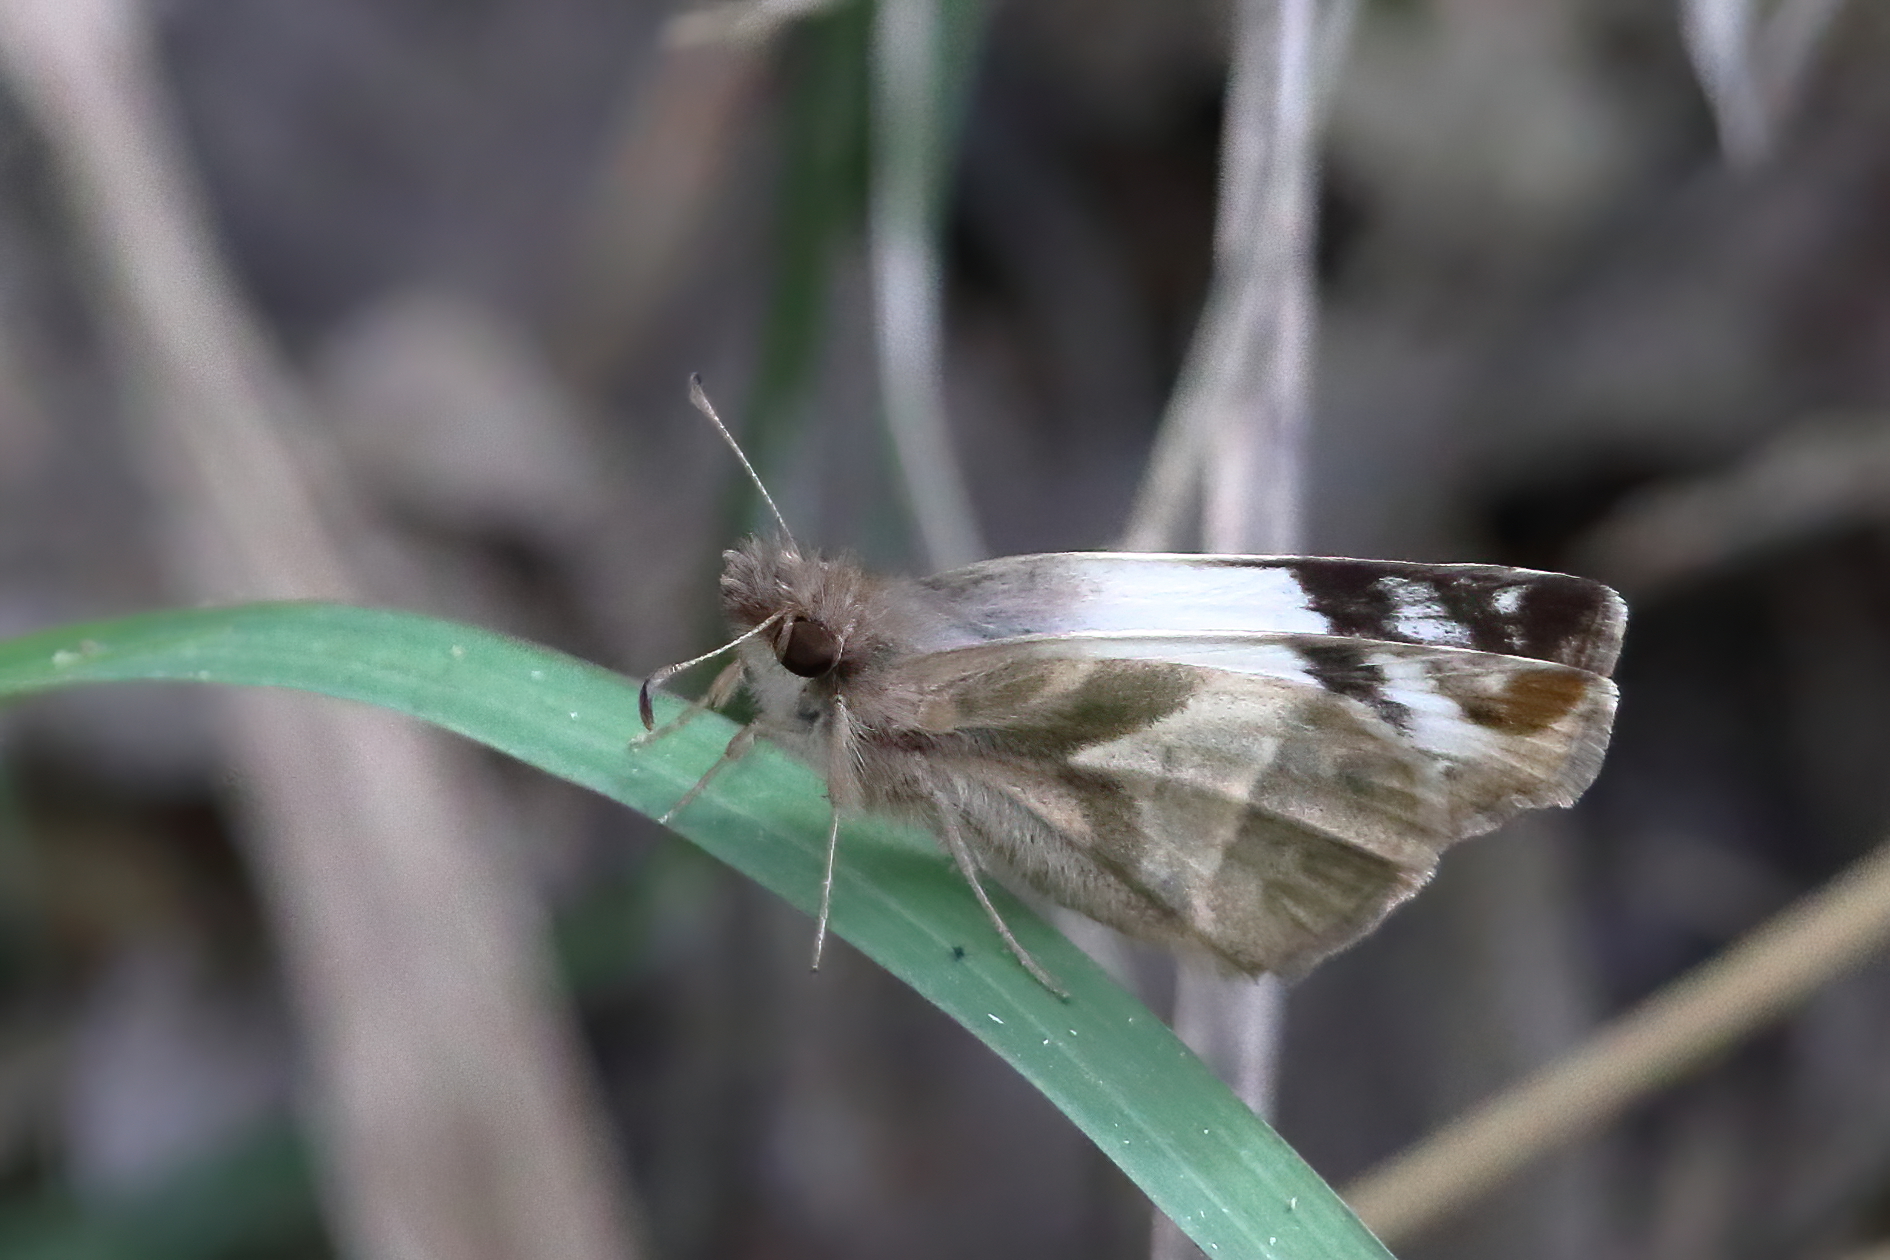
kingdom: Animalia
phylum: Arthropoda
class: Insecta
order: Lepidoptera
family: Hesperiidae
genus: Heliopetes
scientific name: Heliopetes laviana
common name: Laviana white-skipper
